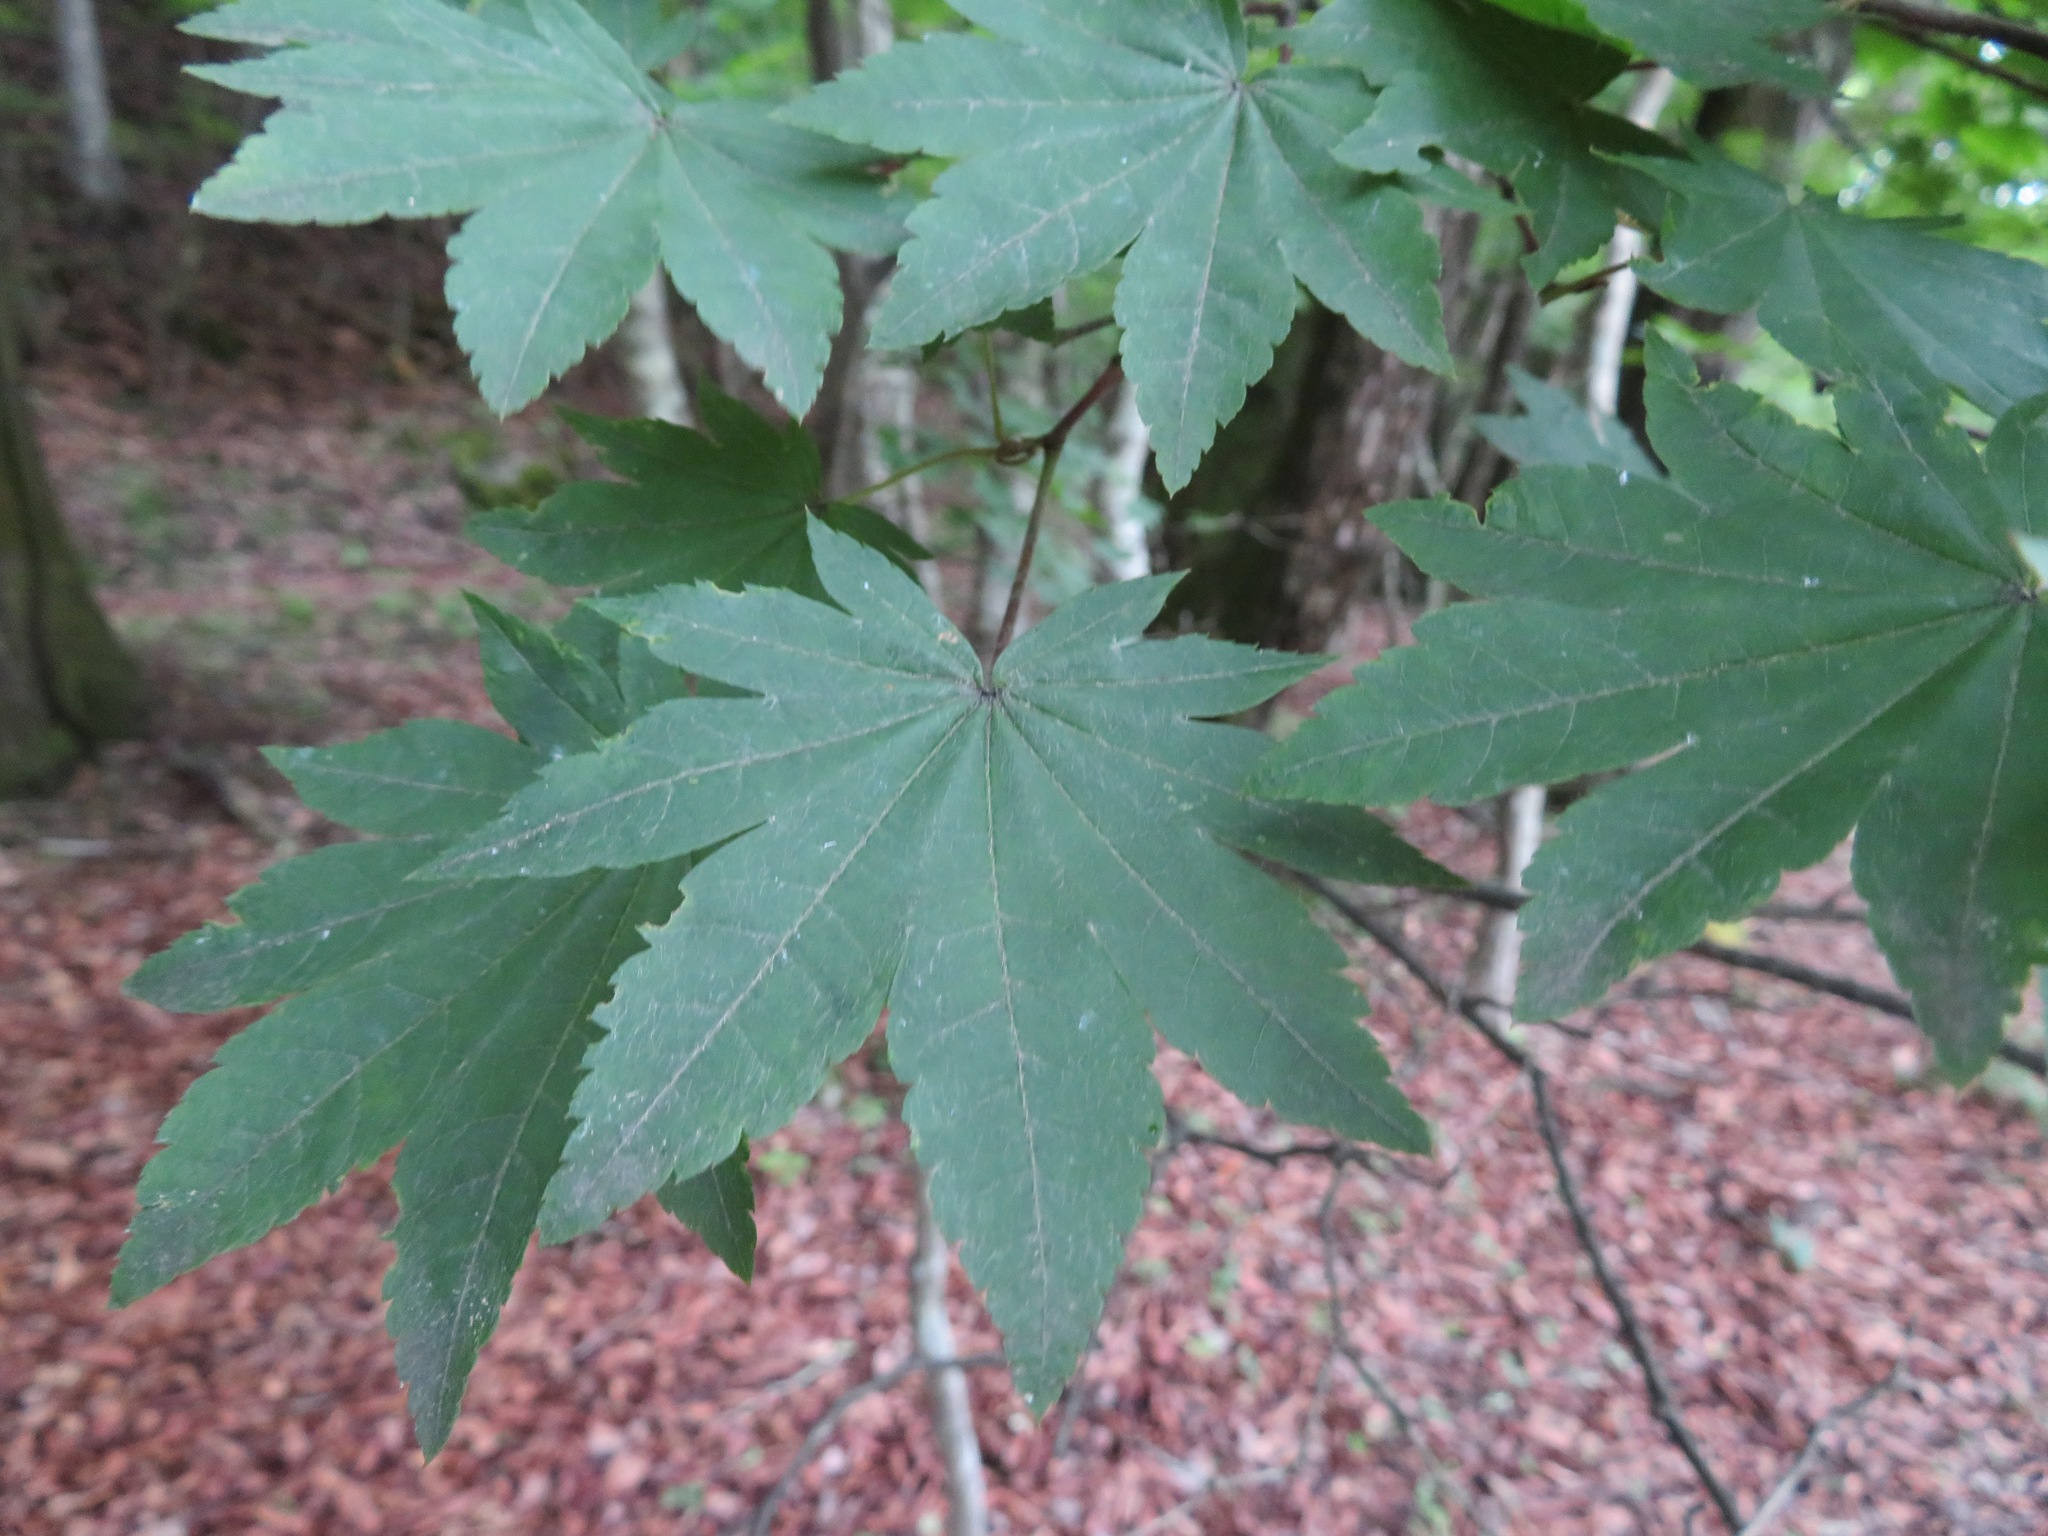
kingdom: Plantae
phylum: Tracheophyta
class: Magnoliopsida
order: Sapindales
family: Sapindaceae
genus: Acer
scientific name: Acer sieboldianum
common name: Siebold's maple
